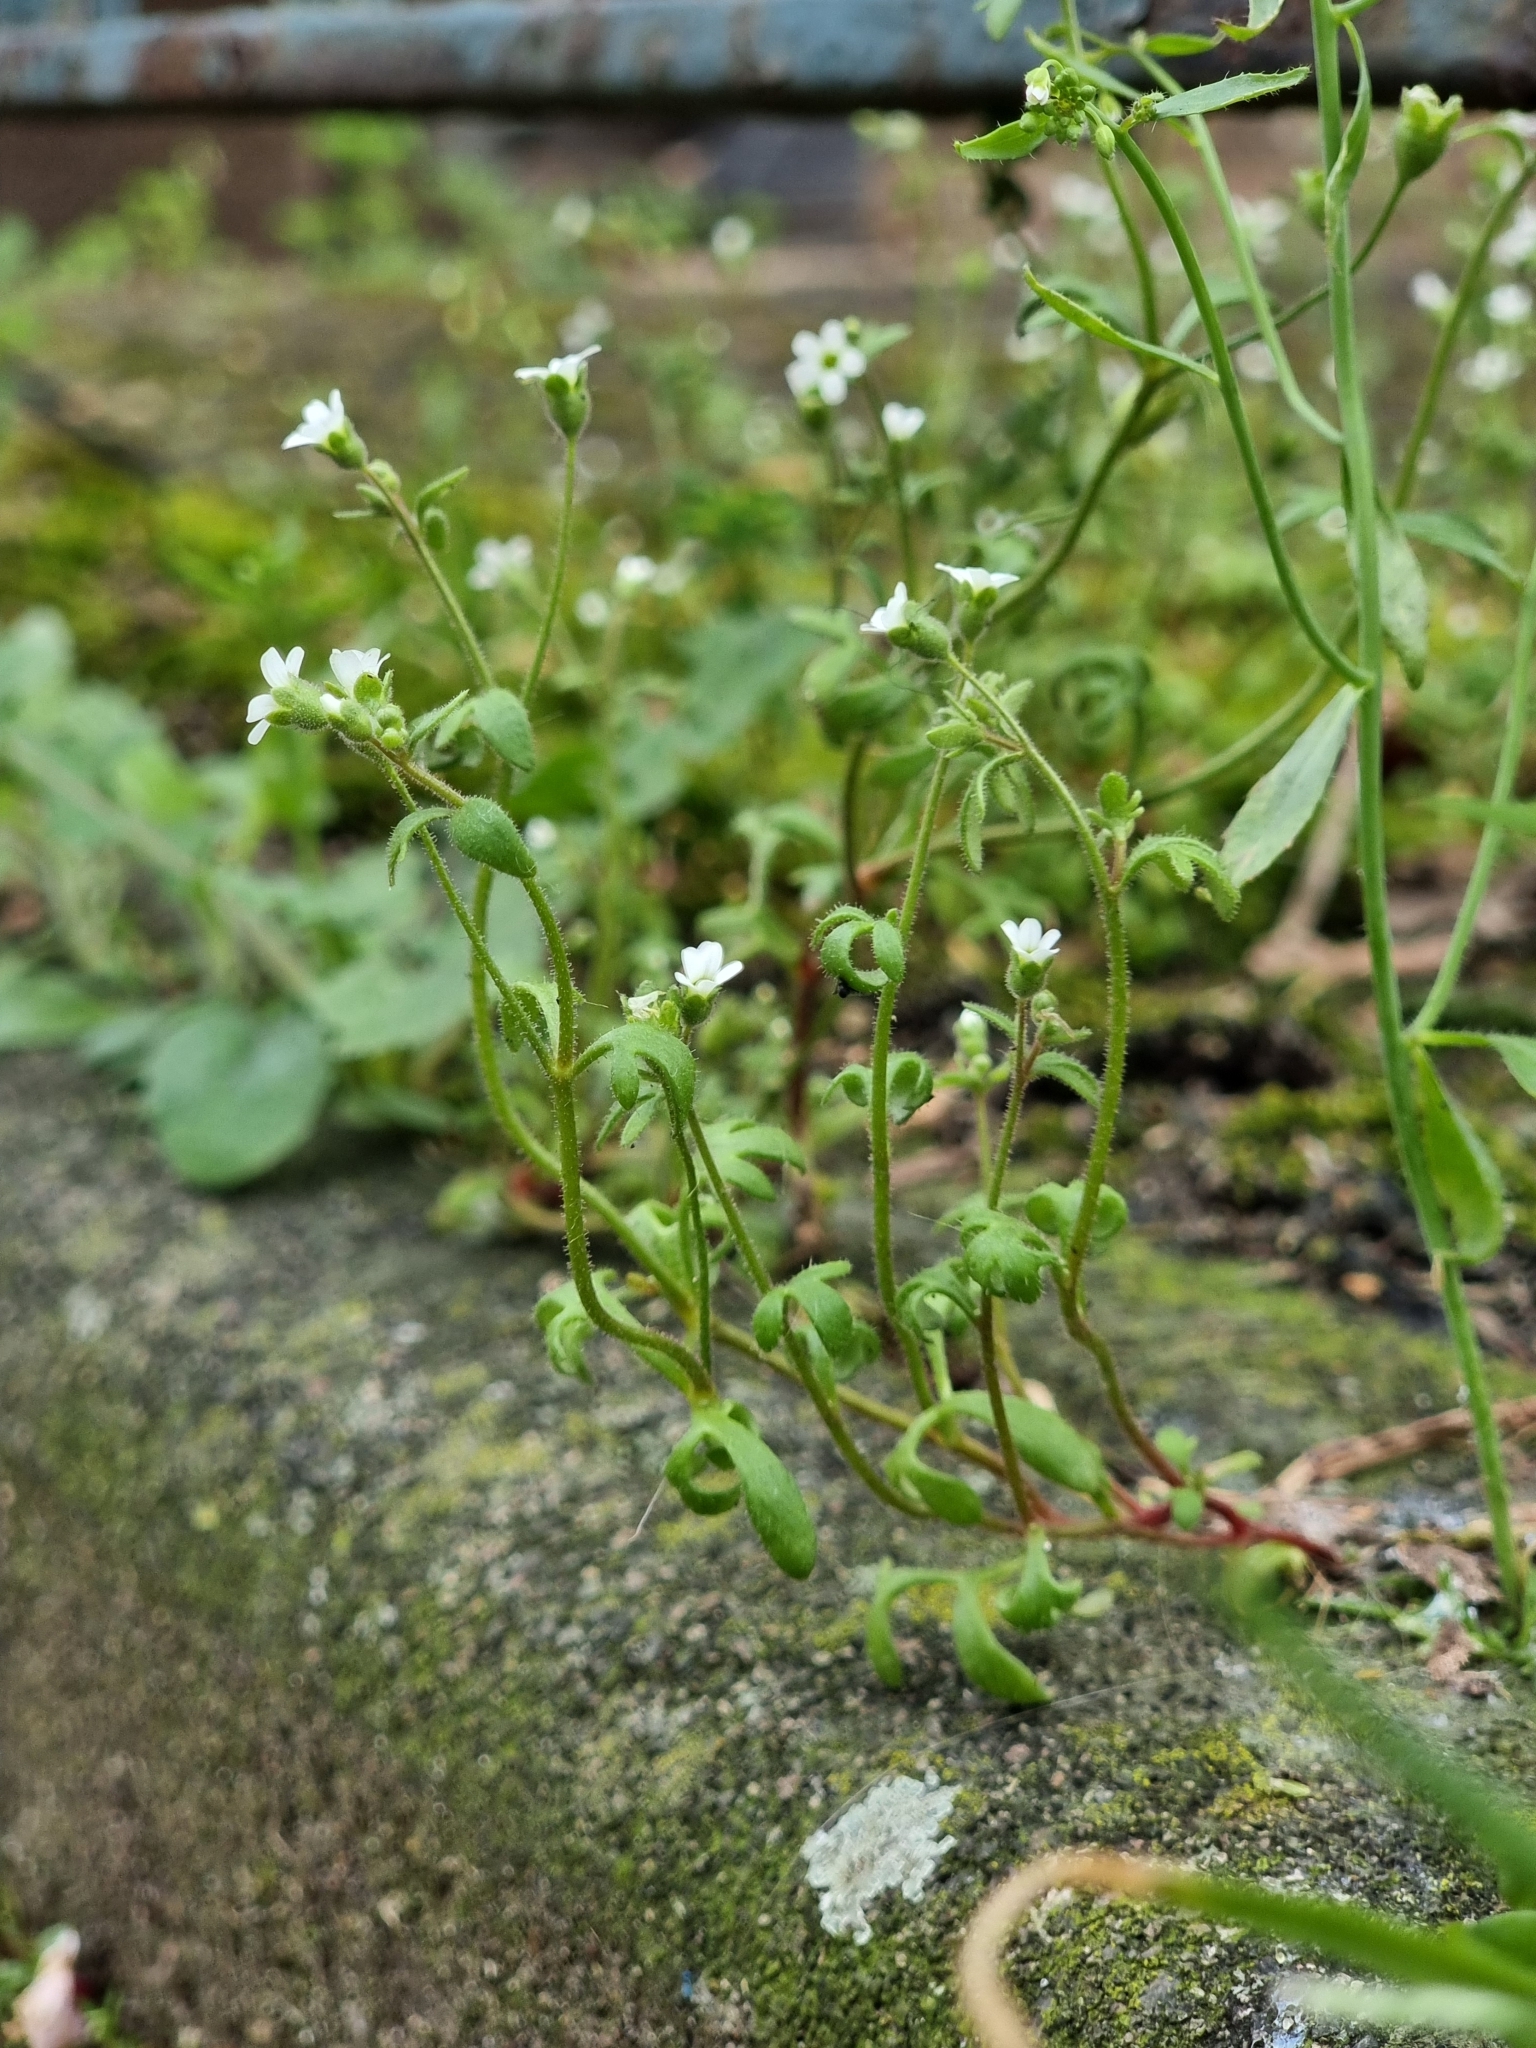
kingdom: Plantae
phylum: Tracheophyta
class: Magnoliopsida
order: Saxifragales
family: Saxifragaceae
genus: Saxifraga
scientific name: Saxifraga tridactylites
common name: Rue-leaved saxifrage
